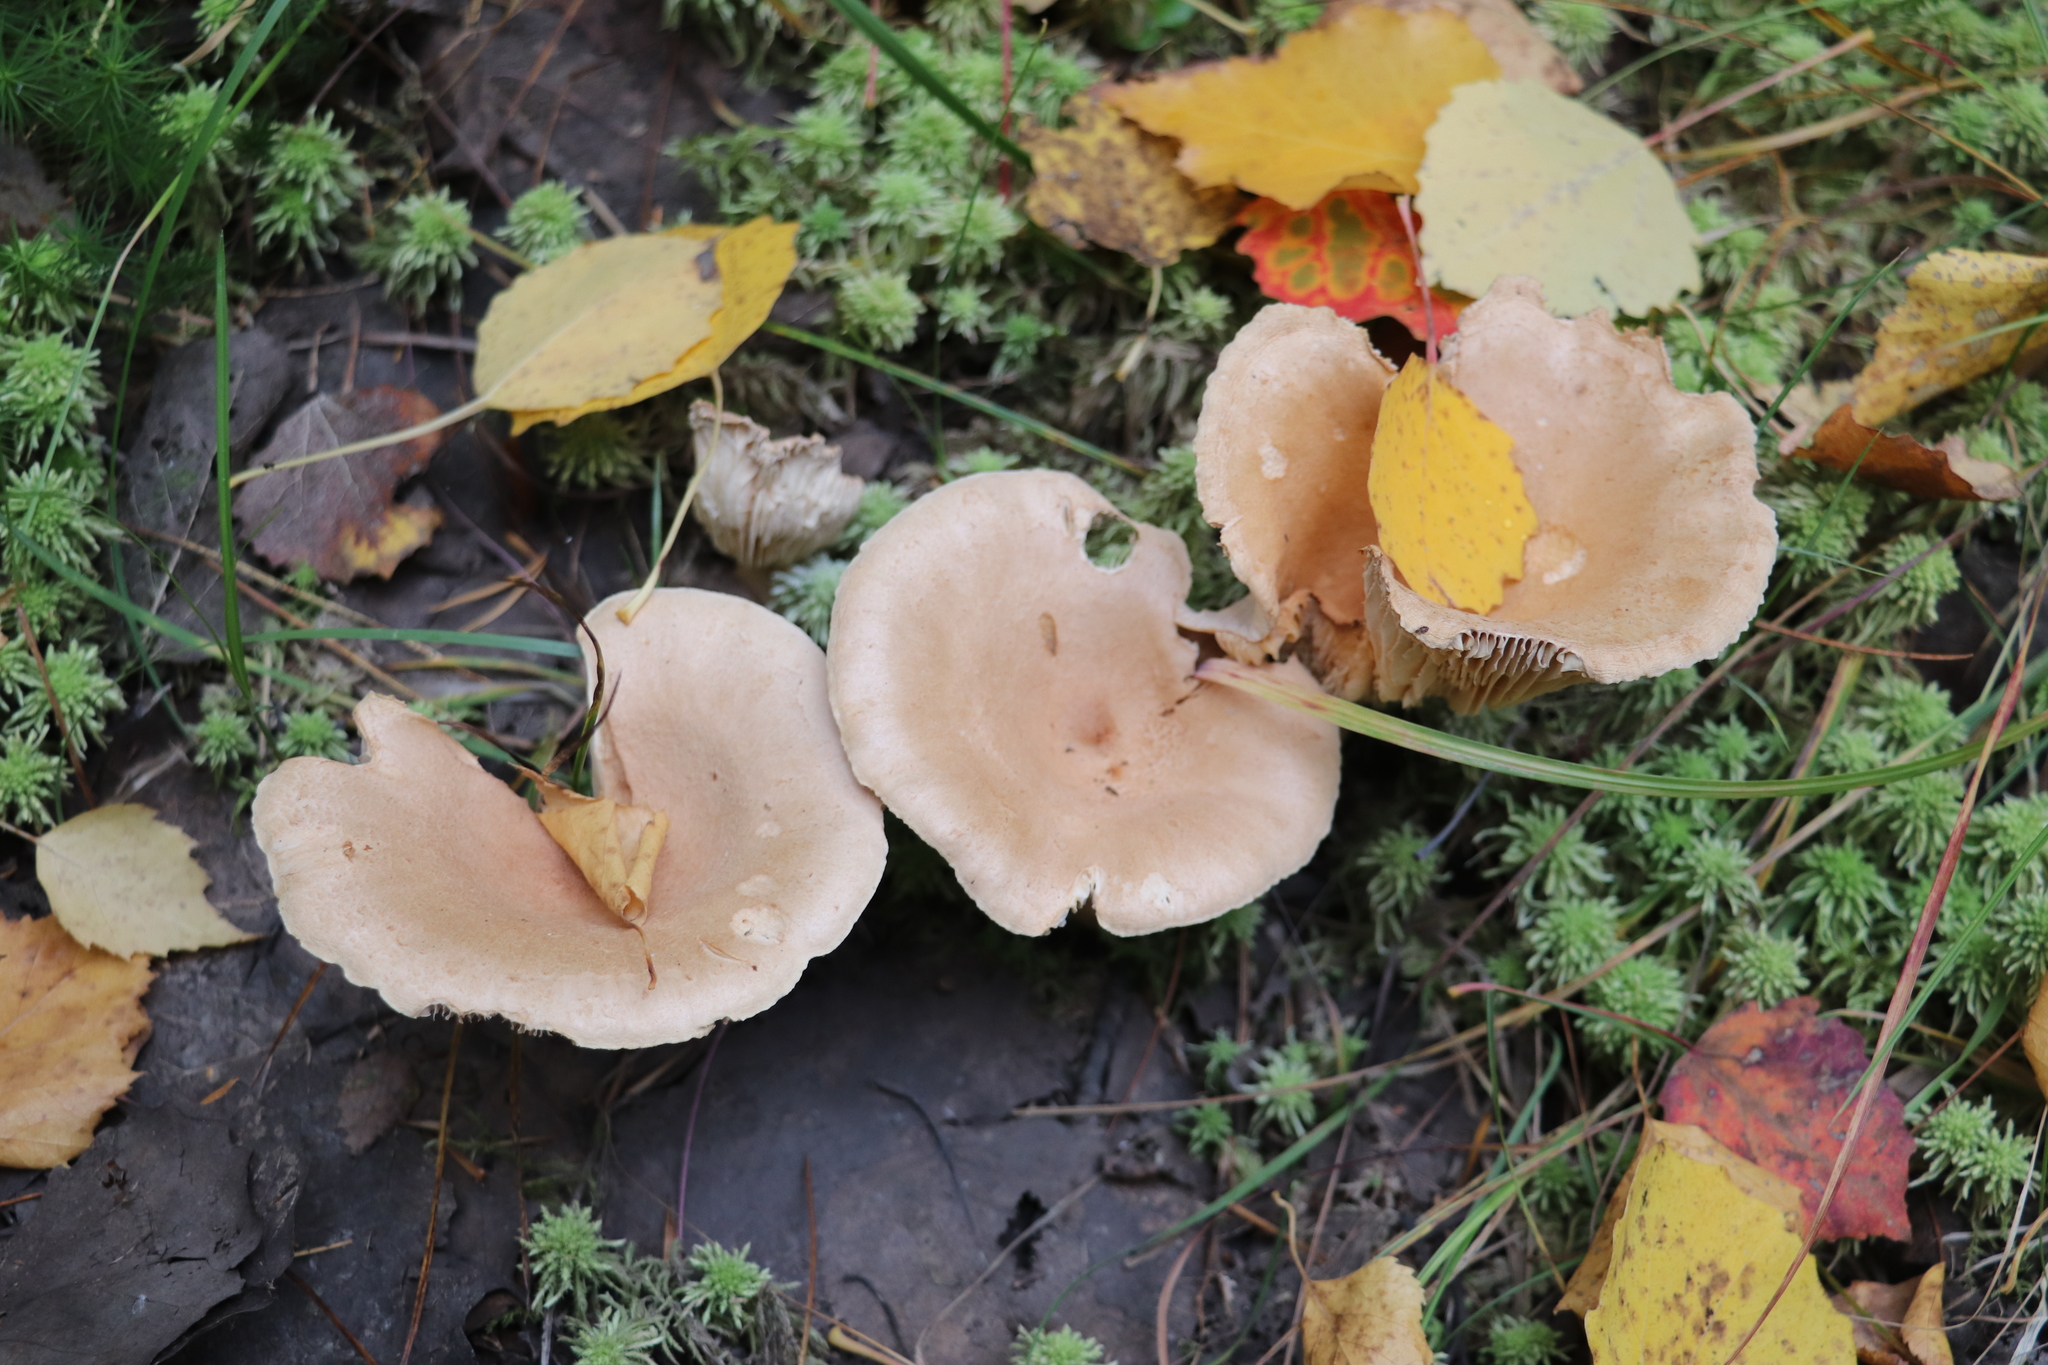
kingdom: Fungi
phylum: Basidiomycota
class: Agaricomycetes
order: Russulales
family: Russulaceae
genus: Lactarius
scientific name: Lactarius helvus
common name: Fenugreek milkcap
